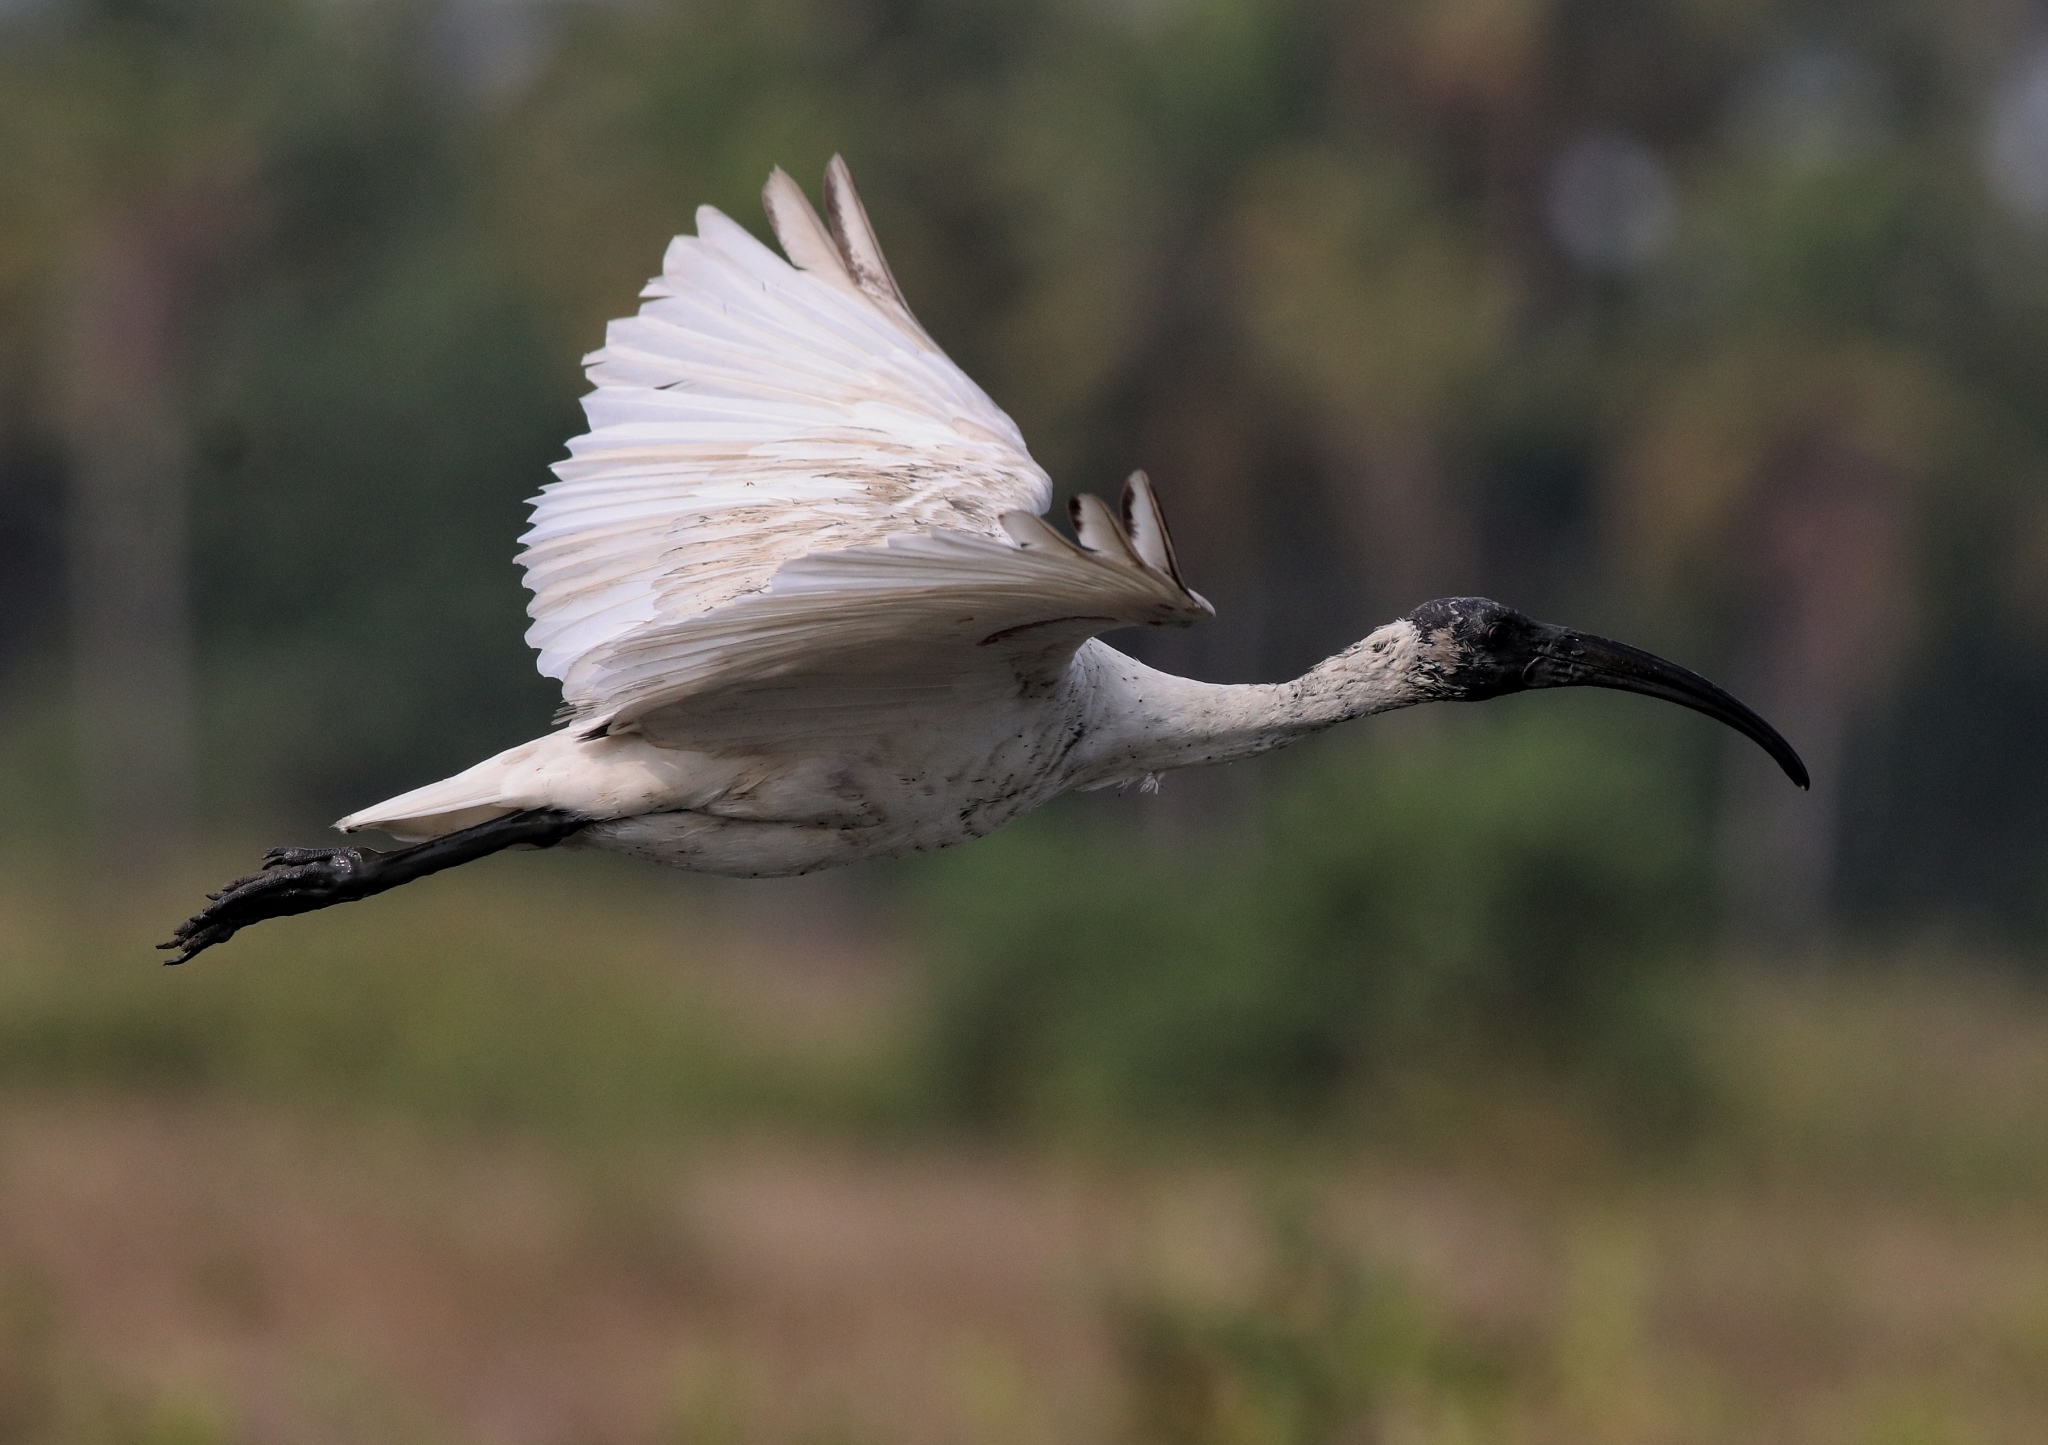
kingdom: Animalia
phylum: Chordata
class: Aves
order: Pelecaniformes
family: Threskiornithidae
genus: Threskiornis
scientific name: Threskiornis melanocephalus
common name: Black-headed ibis
